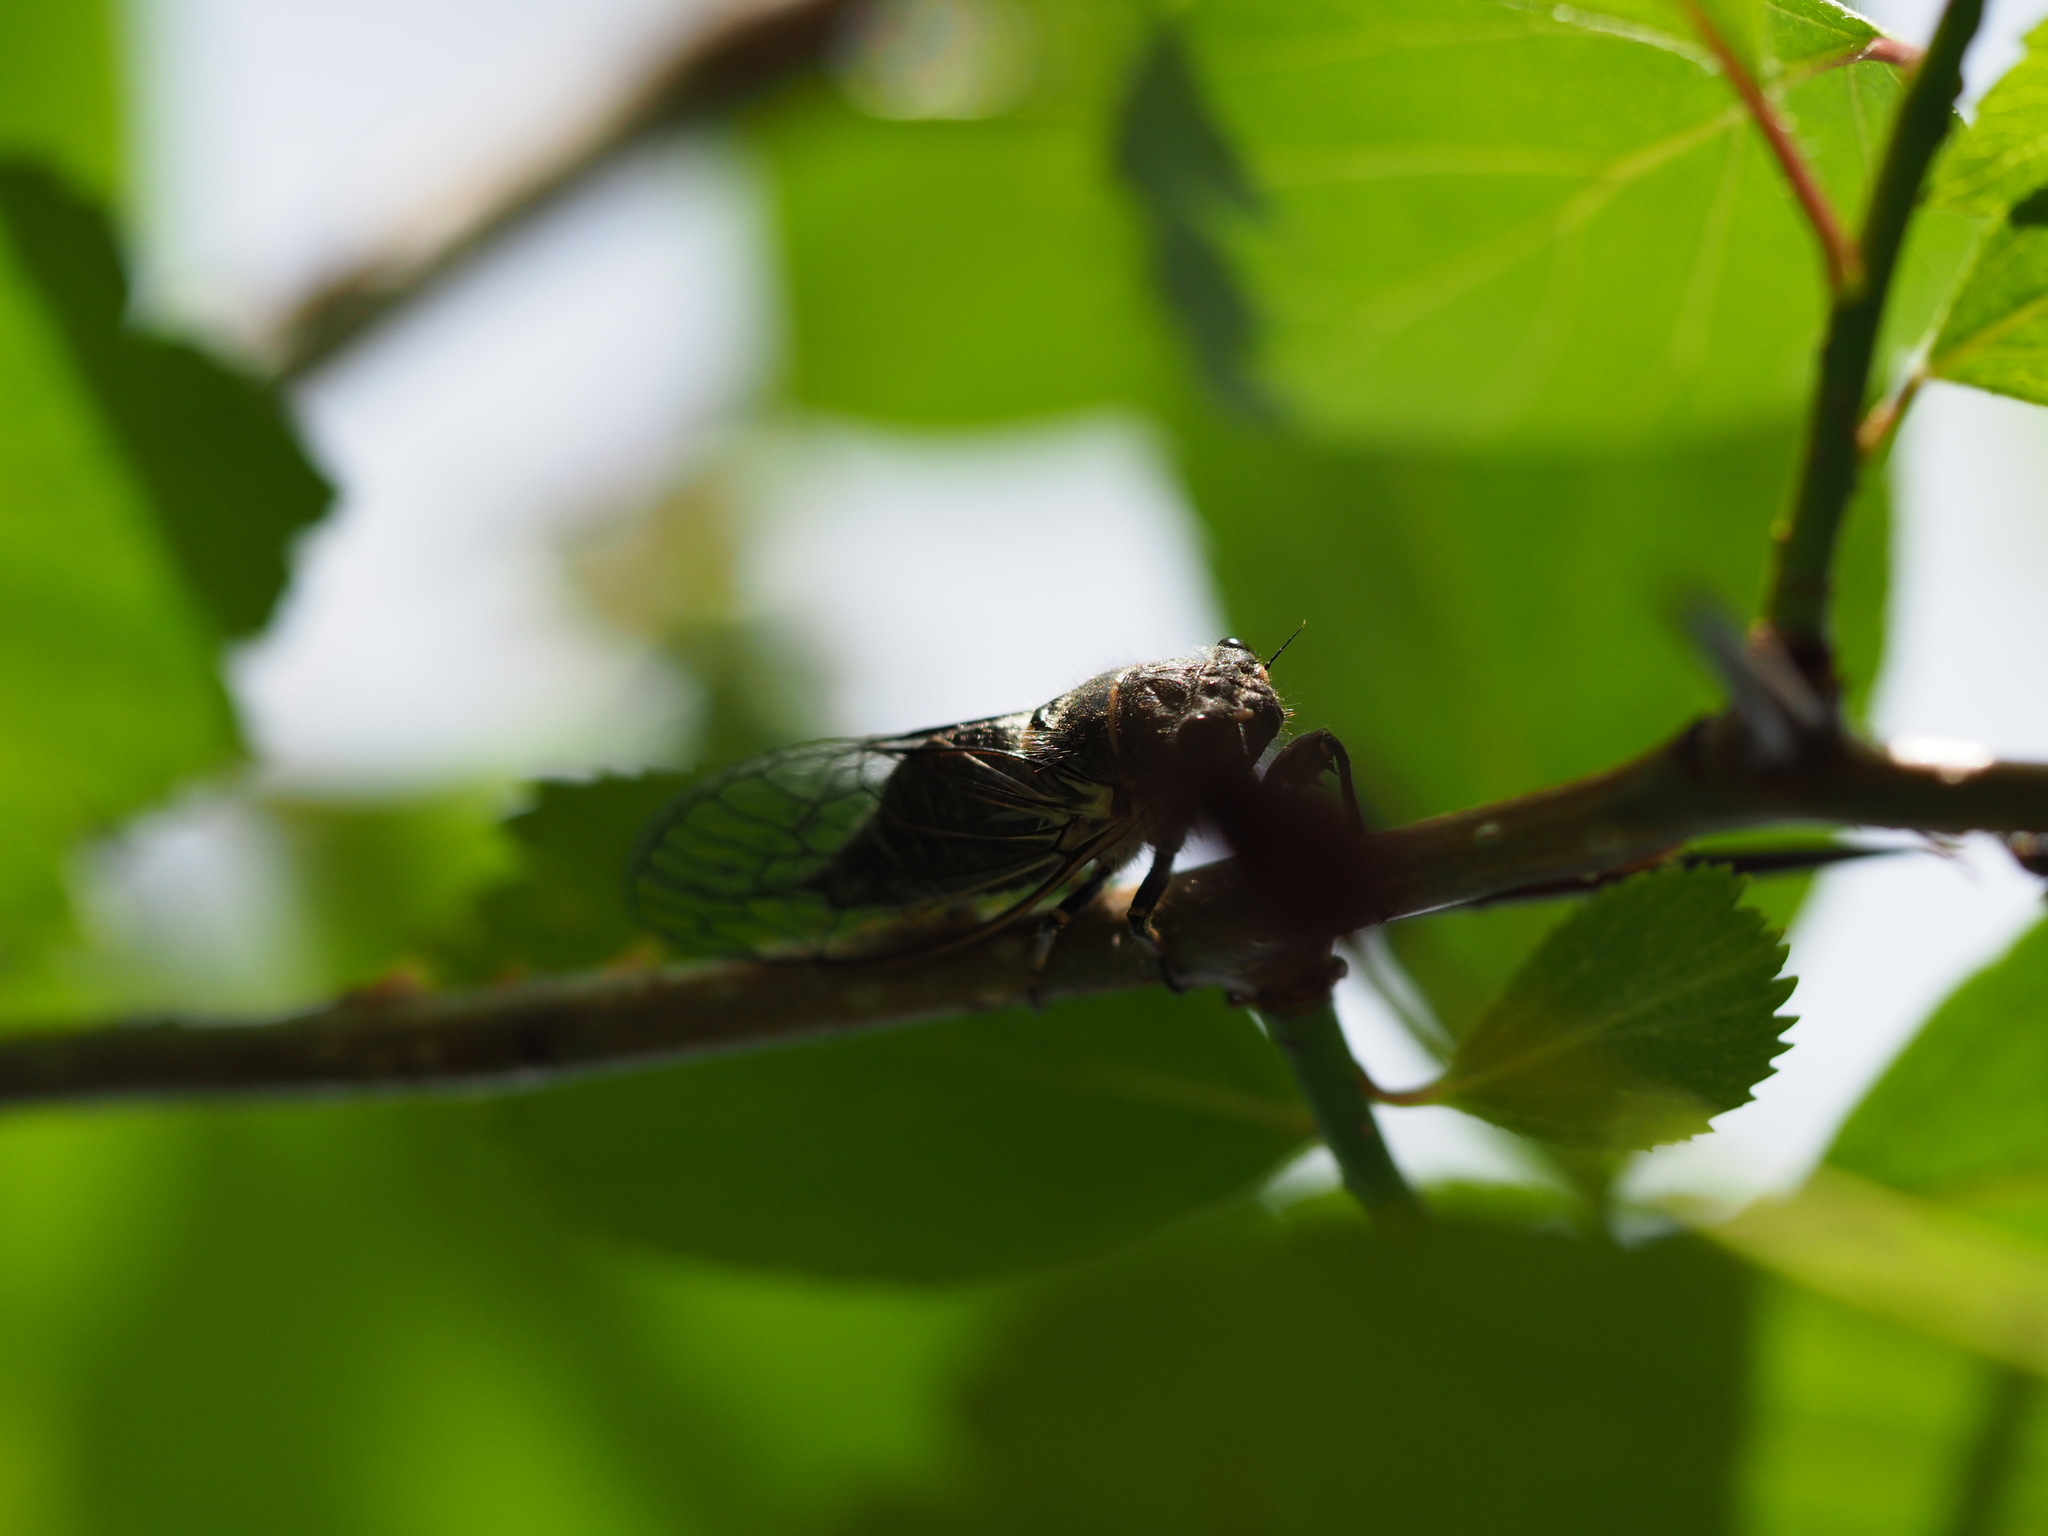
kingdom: Animalia
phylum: Arthropoda
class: Insecta
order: Hemiptera
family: Cicadidae
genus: Platypedia
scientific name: Platypedia areolata
